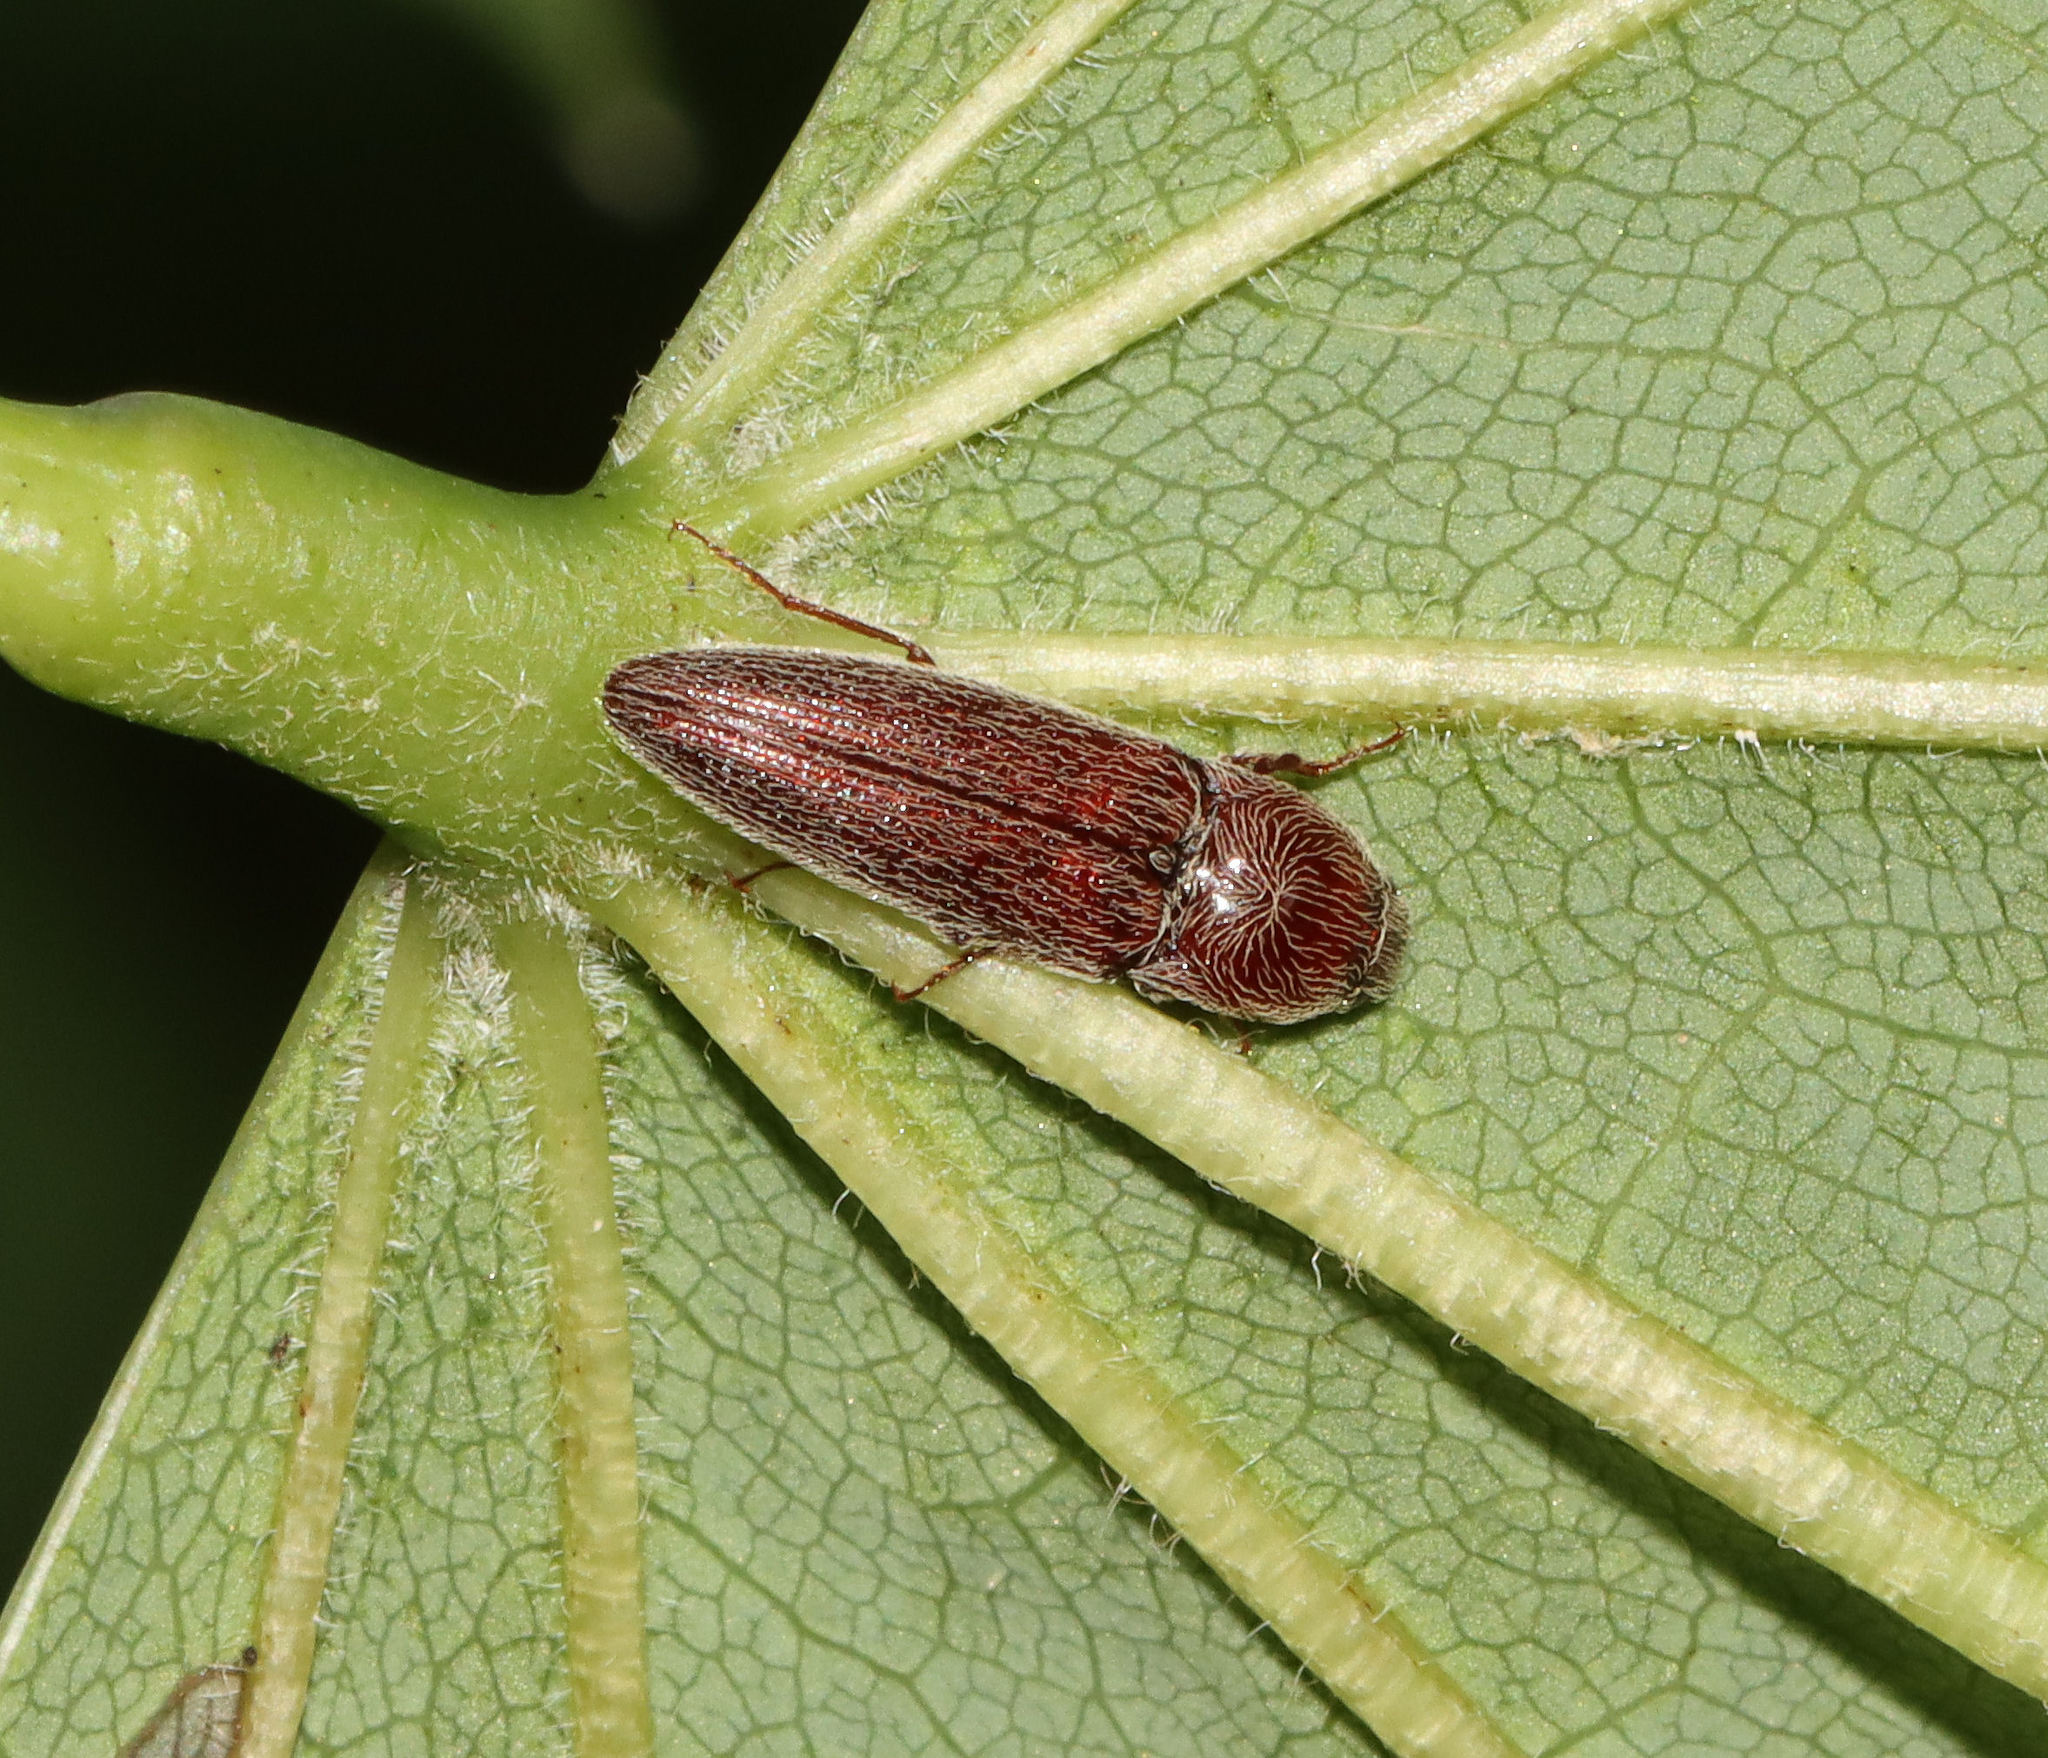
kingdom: Animalia
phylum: Arthropoda
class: Insecta
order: Coleoptera
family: Elateridae
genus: Melanotus
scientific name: Melanotus
